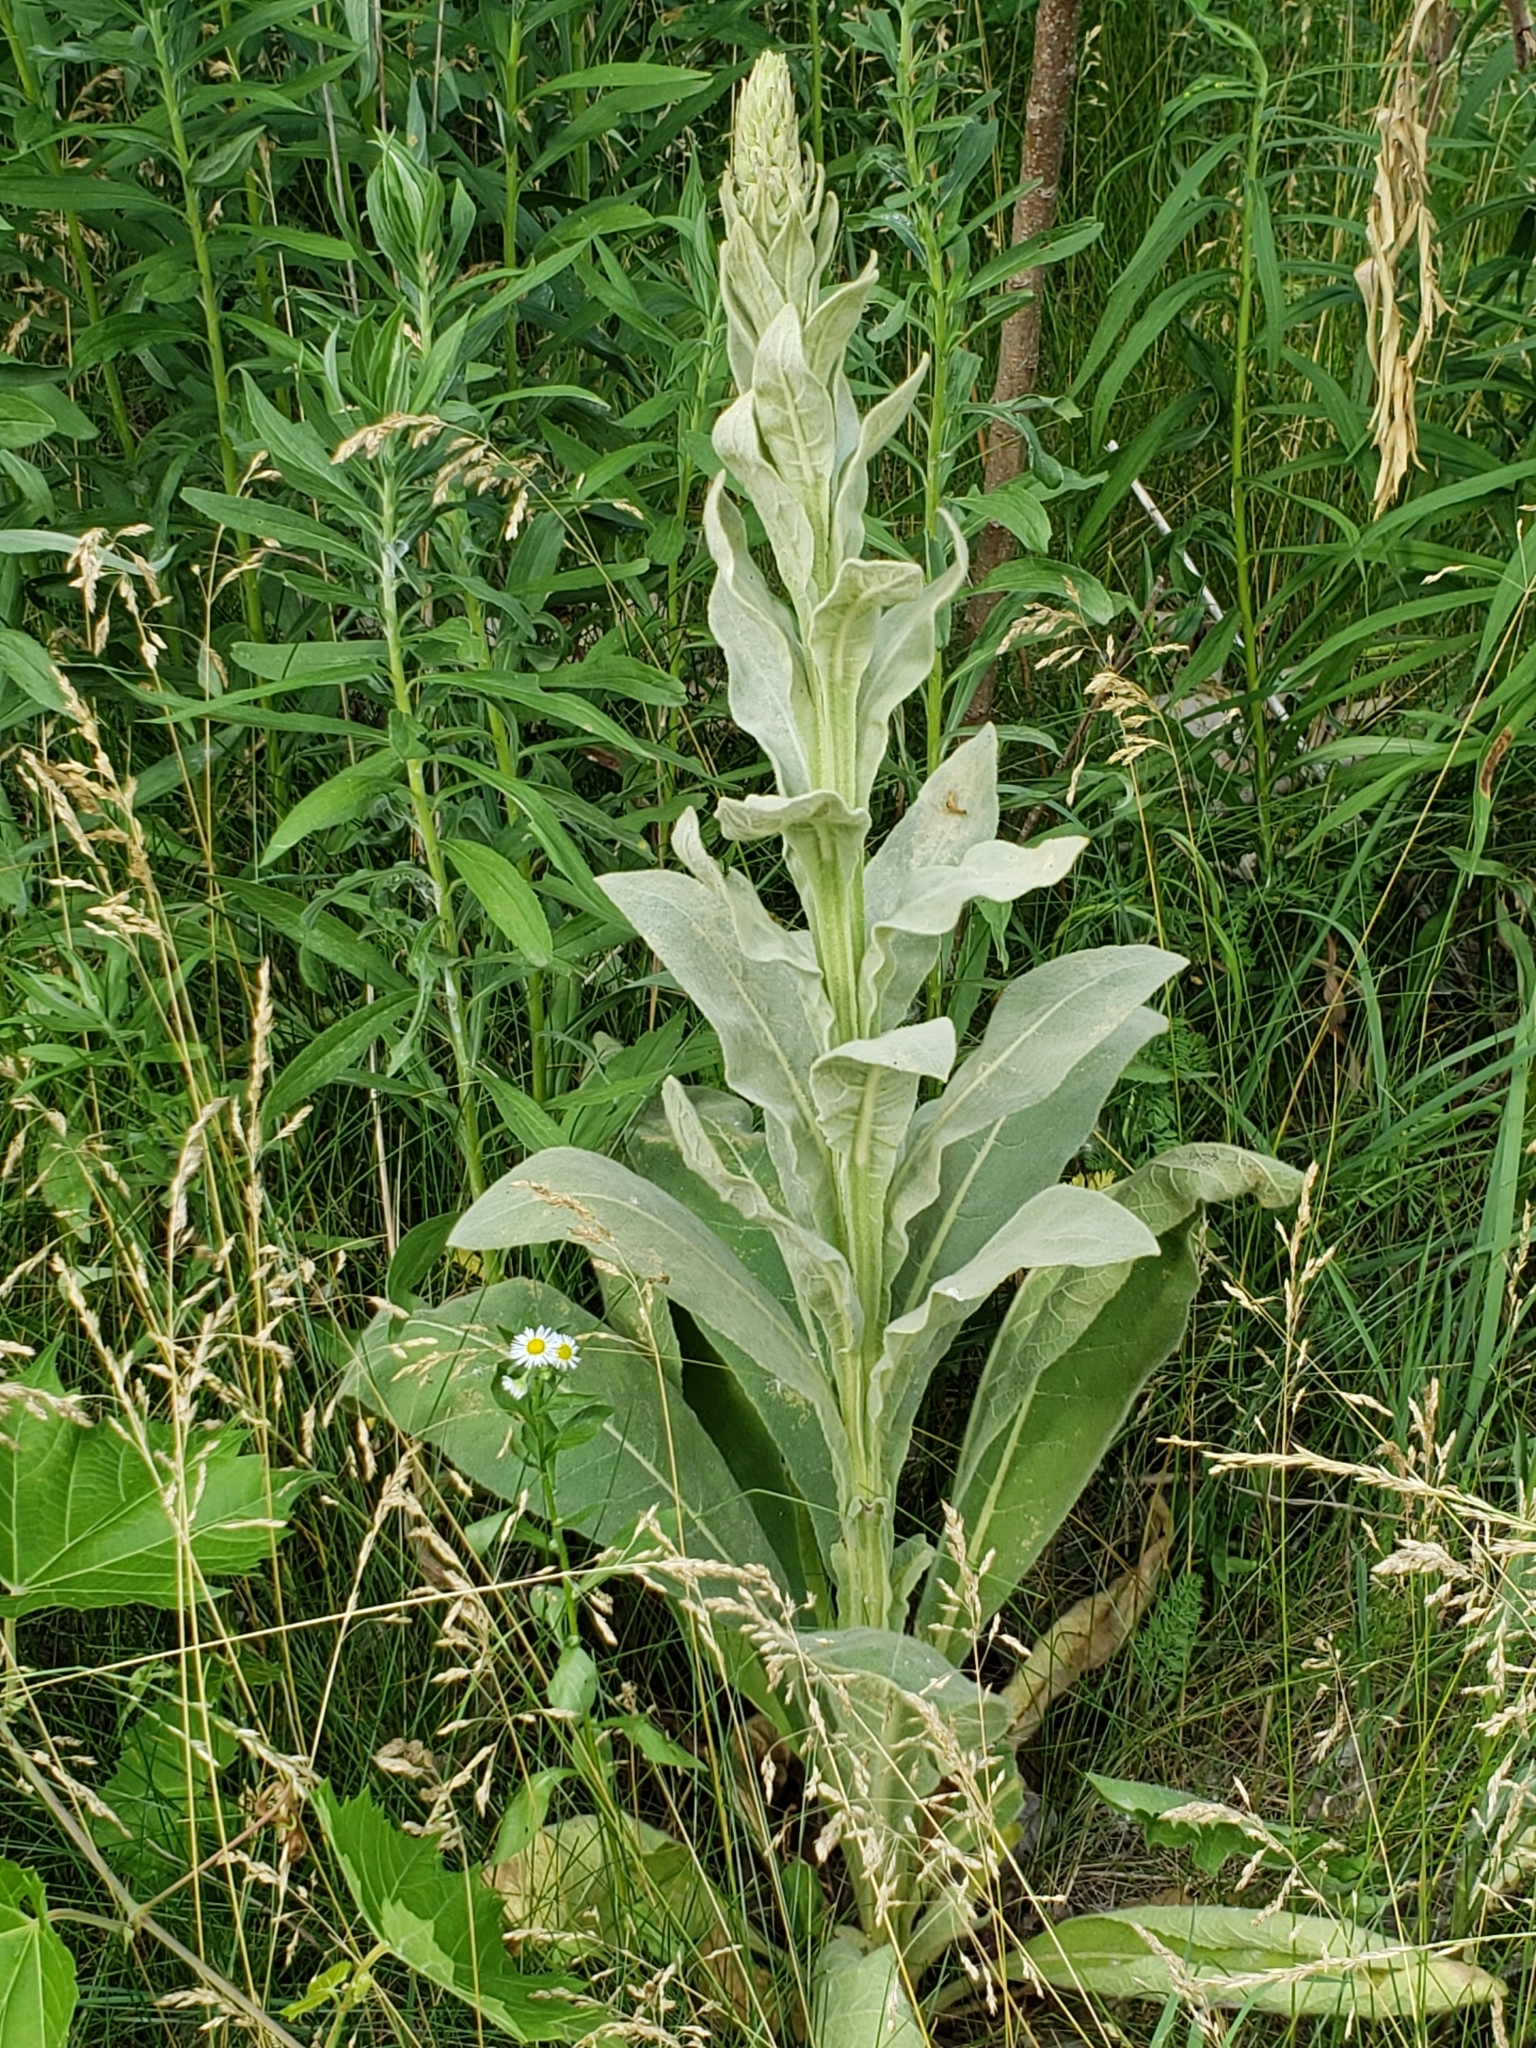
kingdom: Plantae
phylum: Tracheophyta
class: Magnoliopsida
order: Lamiales
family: Scrophulariaceae
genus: Verbascum
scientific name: Verbascum thapsus
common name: Common mullein
